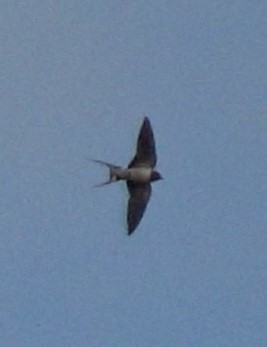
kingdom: Animalia
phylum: Chordata
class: Aves
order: Passeriformes
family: Hirundinidae
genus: Hirundo
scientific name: Hirundo rustica
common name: Barn swallow
